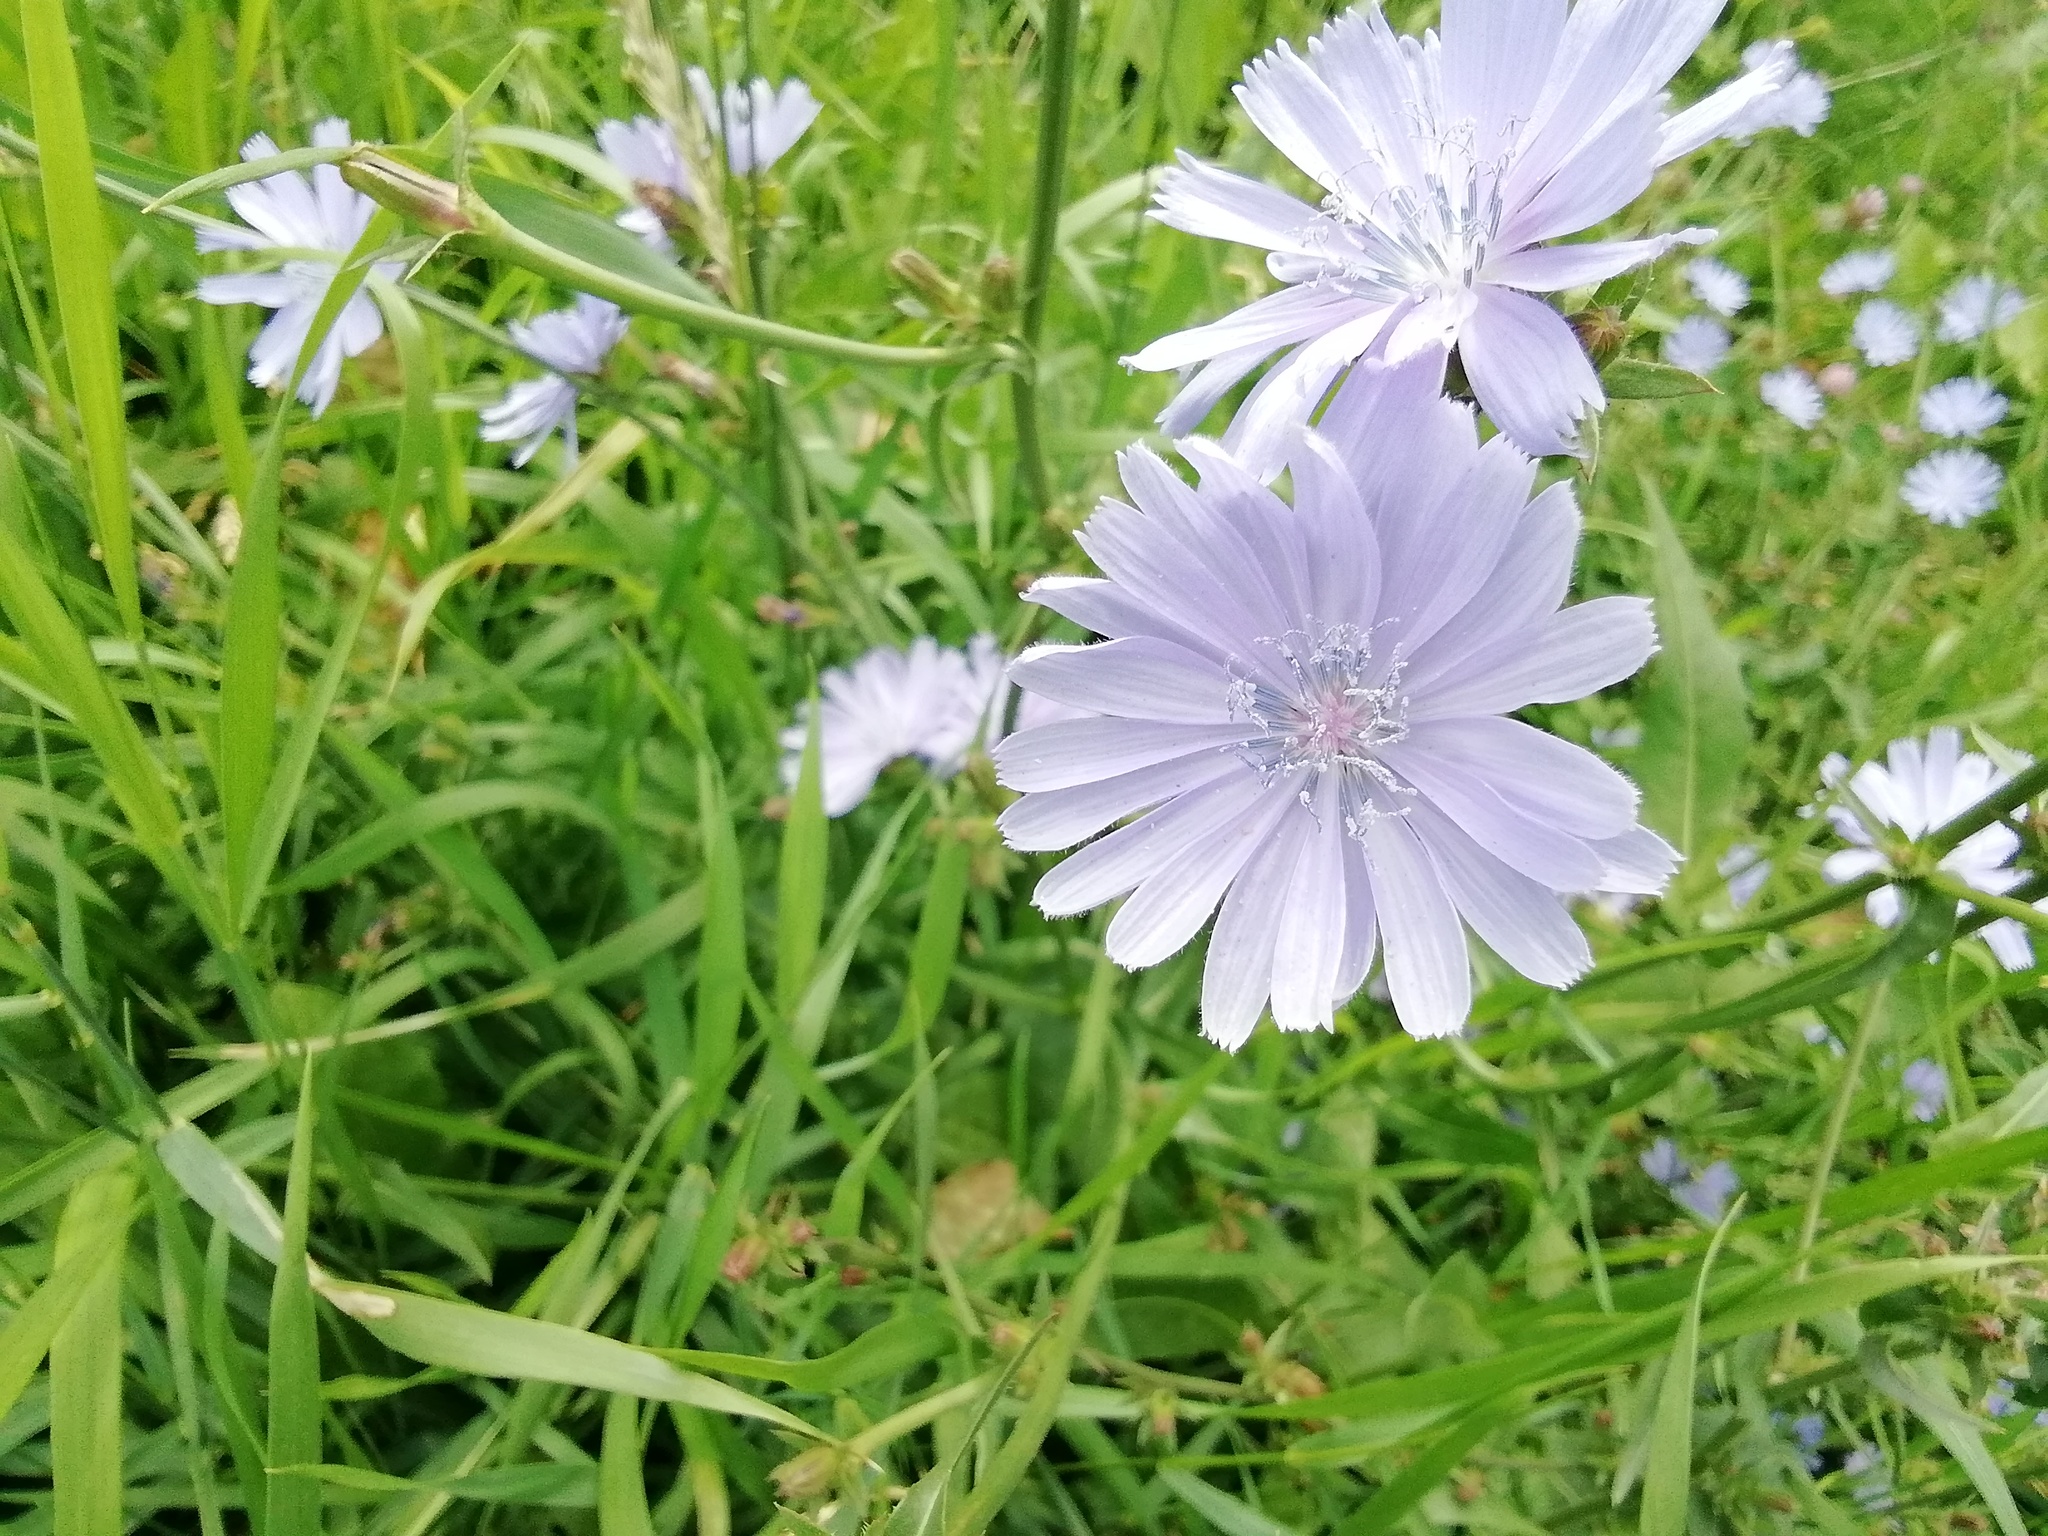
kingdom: Plantae
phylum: Tracheophyta
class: Magnoliopsida
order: Asterales
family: Asteraceae
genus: Cichorium
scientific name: Cichorium intybus
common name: Chicory
